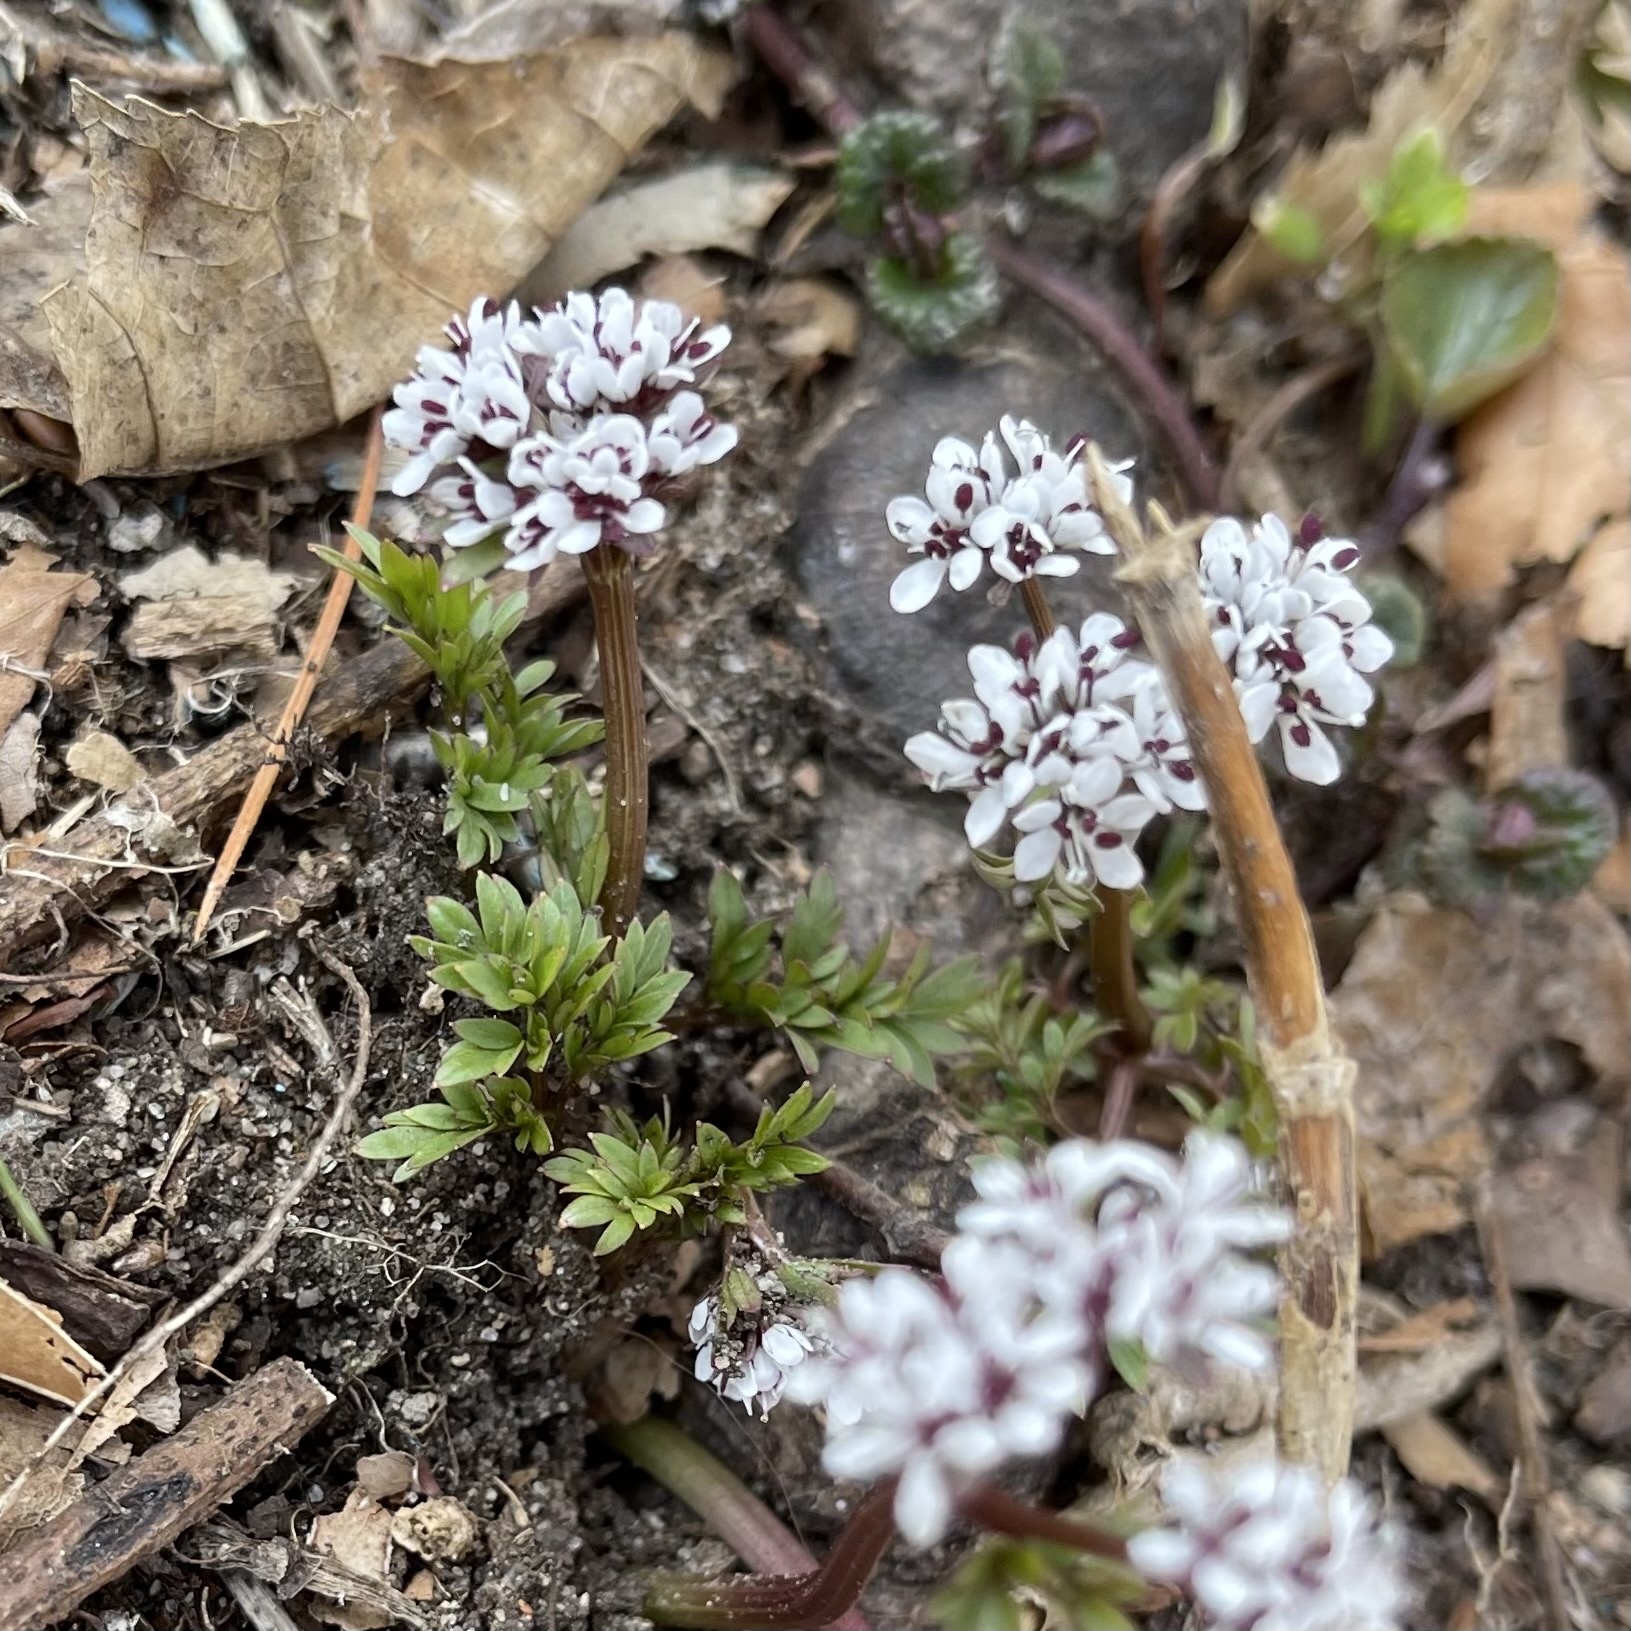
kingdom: Plantae
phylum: Tracheophyta
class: Magnoliopsida
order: Apiales
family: Apiaceae
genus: Erigenia
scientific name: Erigenia bulbosa
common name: Pepper-and-salt
